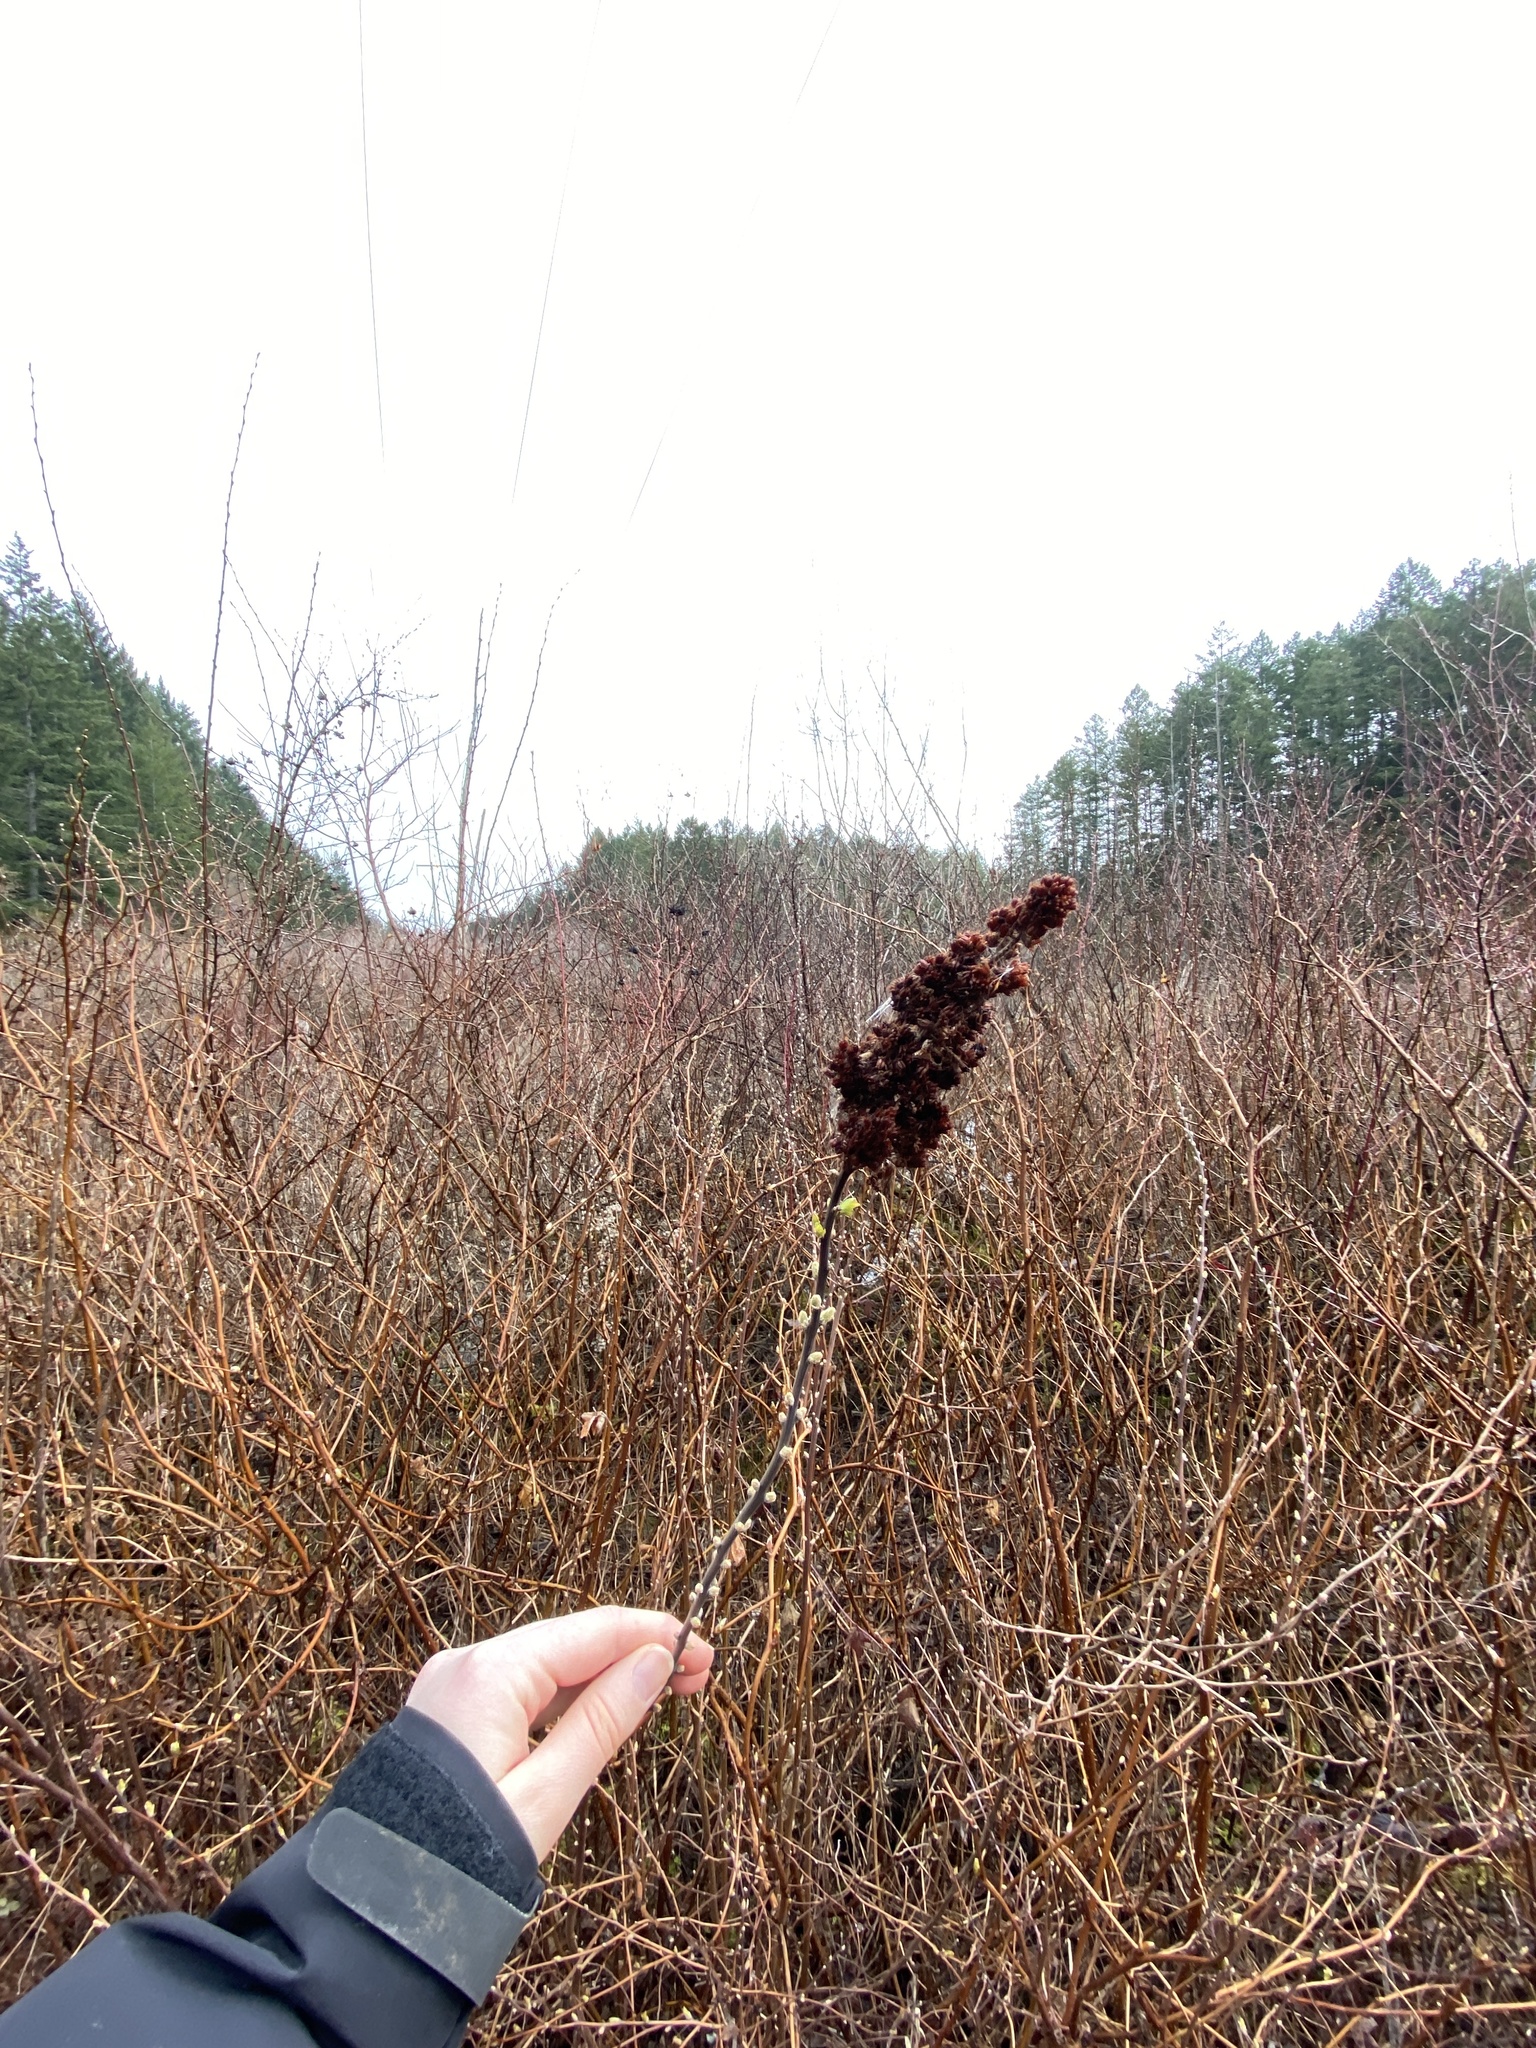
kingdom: Plantae
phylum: Tracheophyta
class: Magnoliopsida
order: Rosales
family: Rosaceae
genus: Spiraea
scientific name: Spiraea douglasii
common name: Steeplebush
